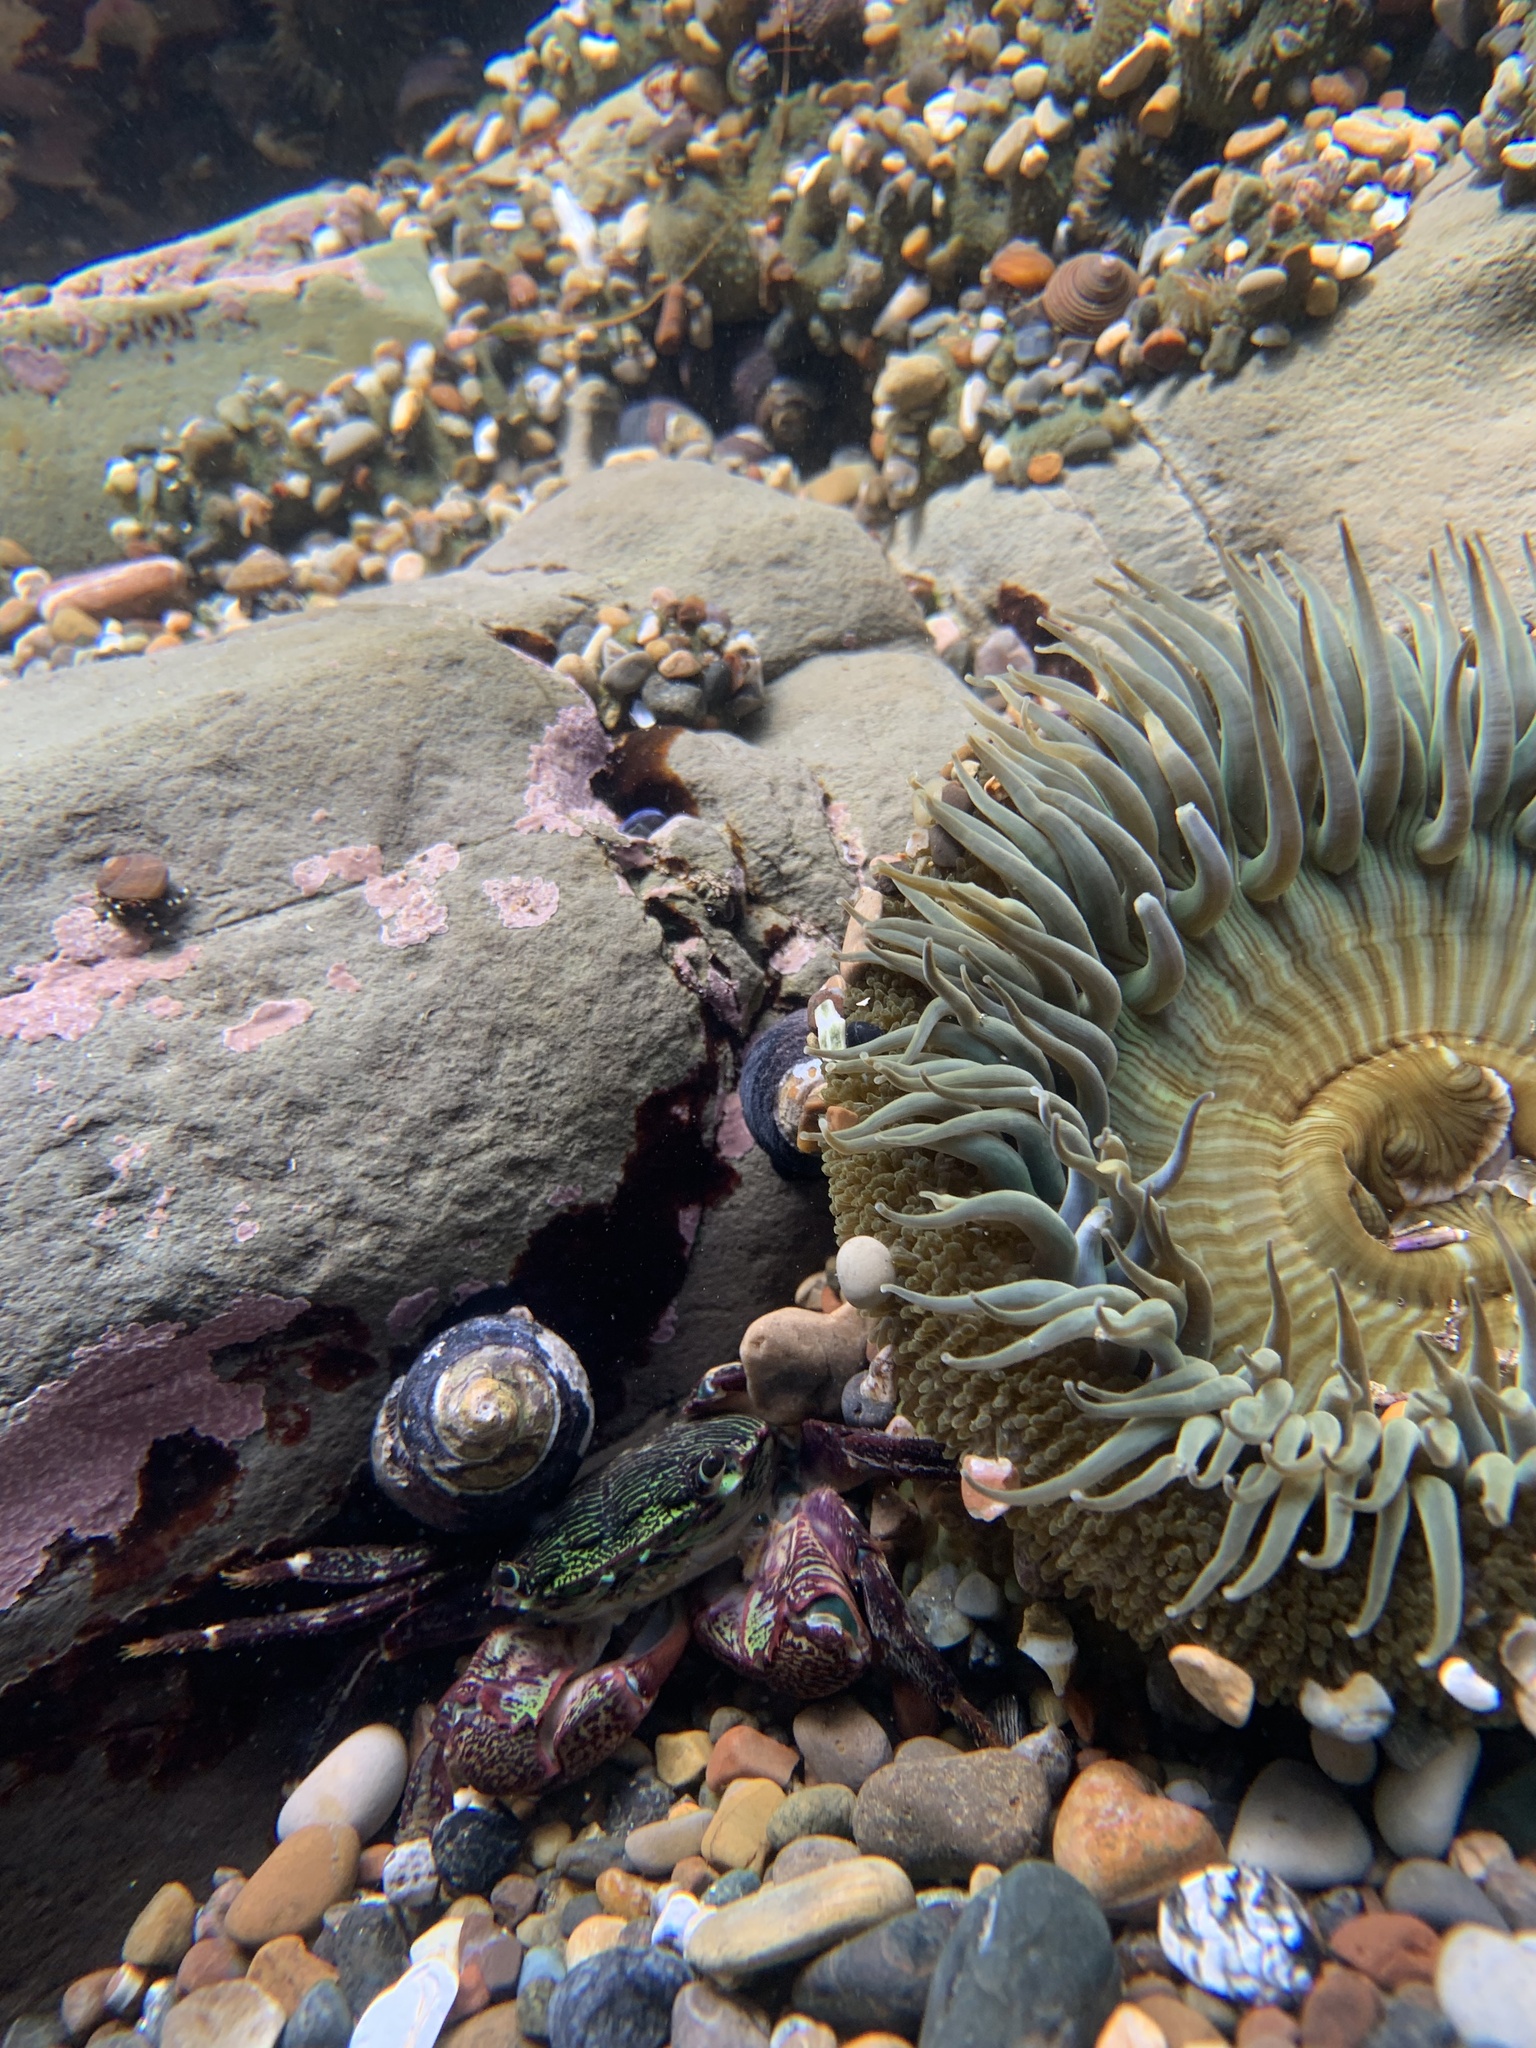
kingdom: Animalia
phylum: Cnidaria
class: Anthozoa
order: Actiniaria
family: Actiniidae
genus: Anthopleura
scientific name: Anthopleura sola
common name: Sun anemone
